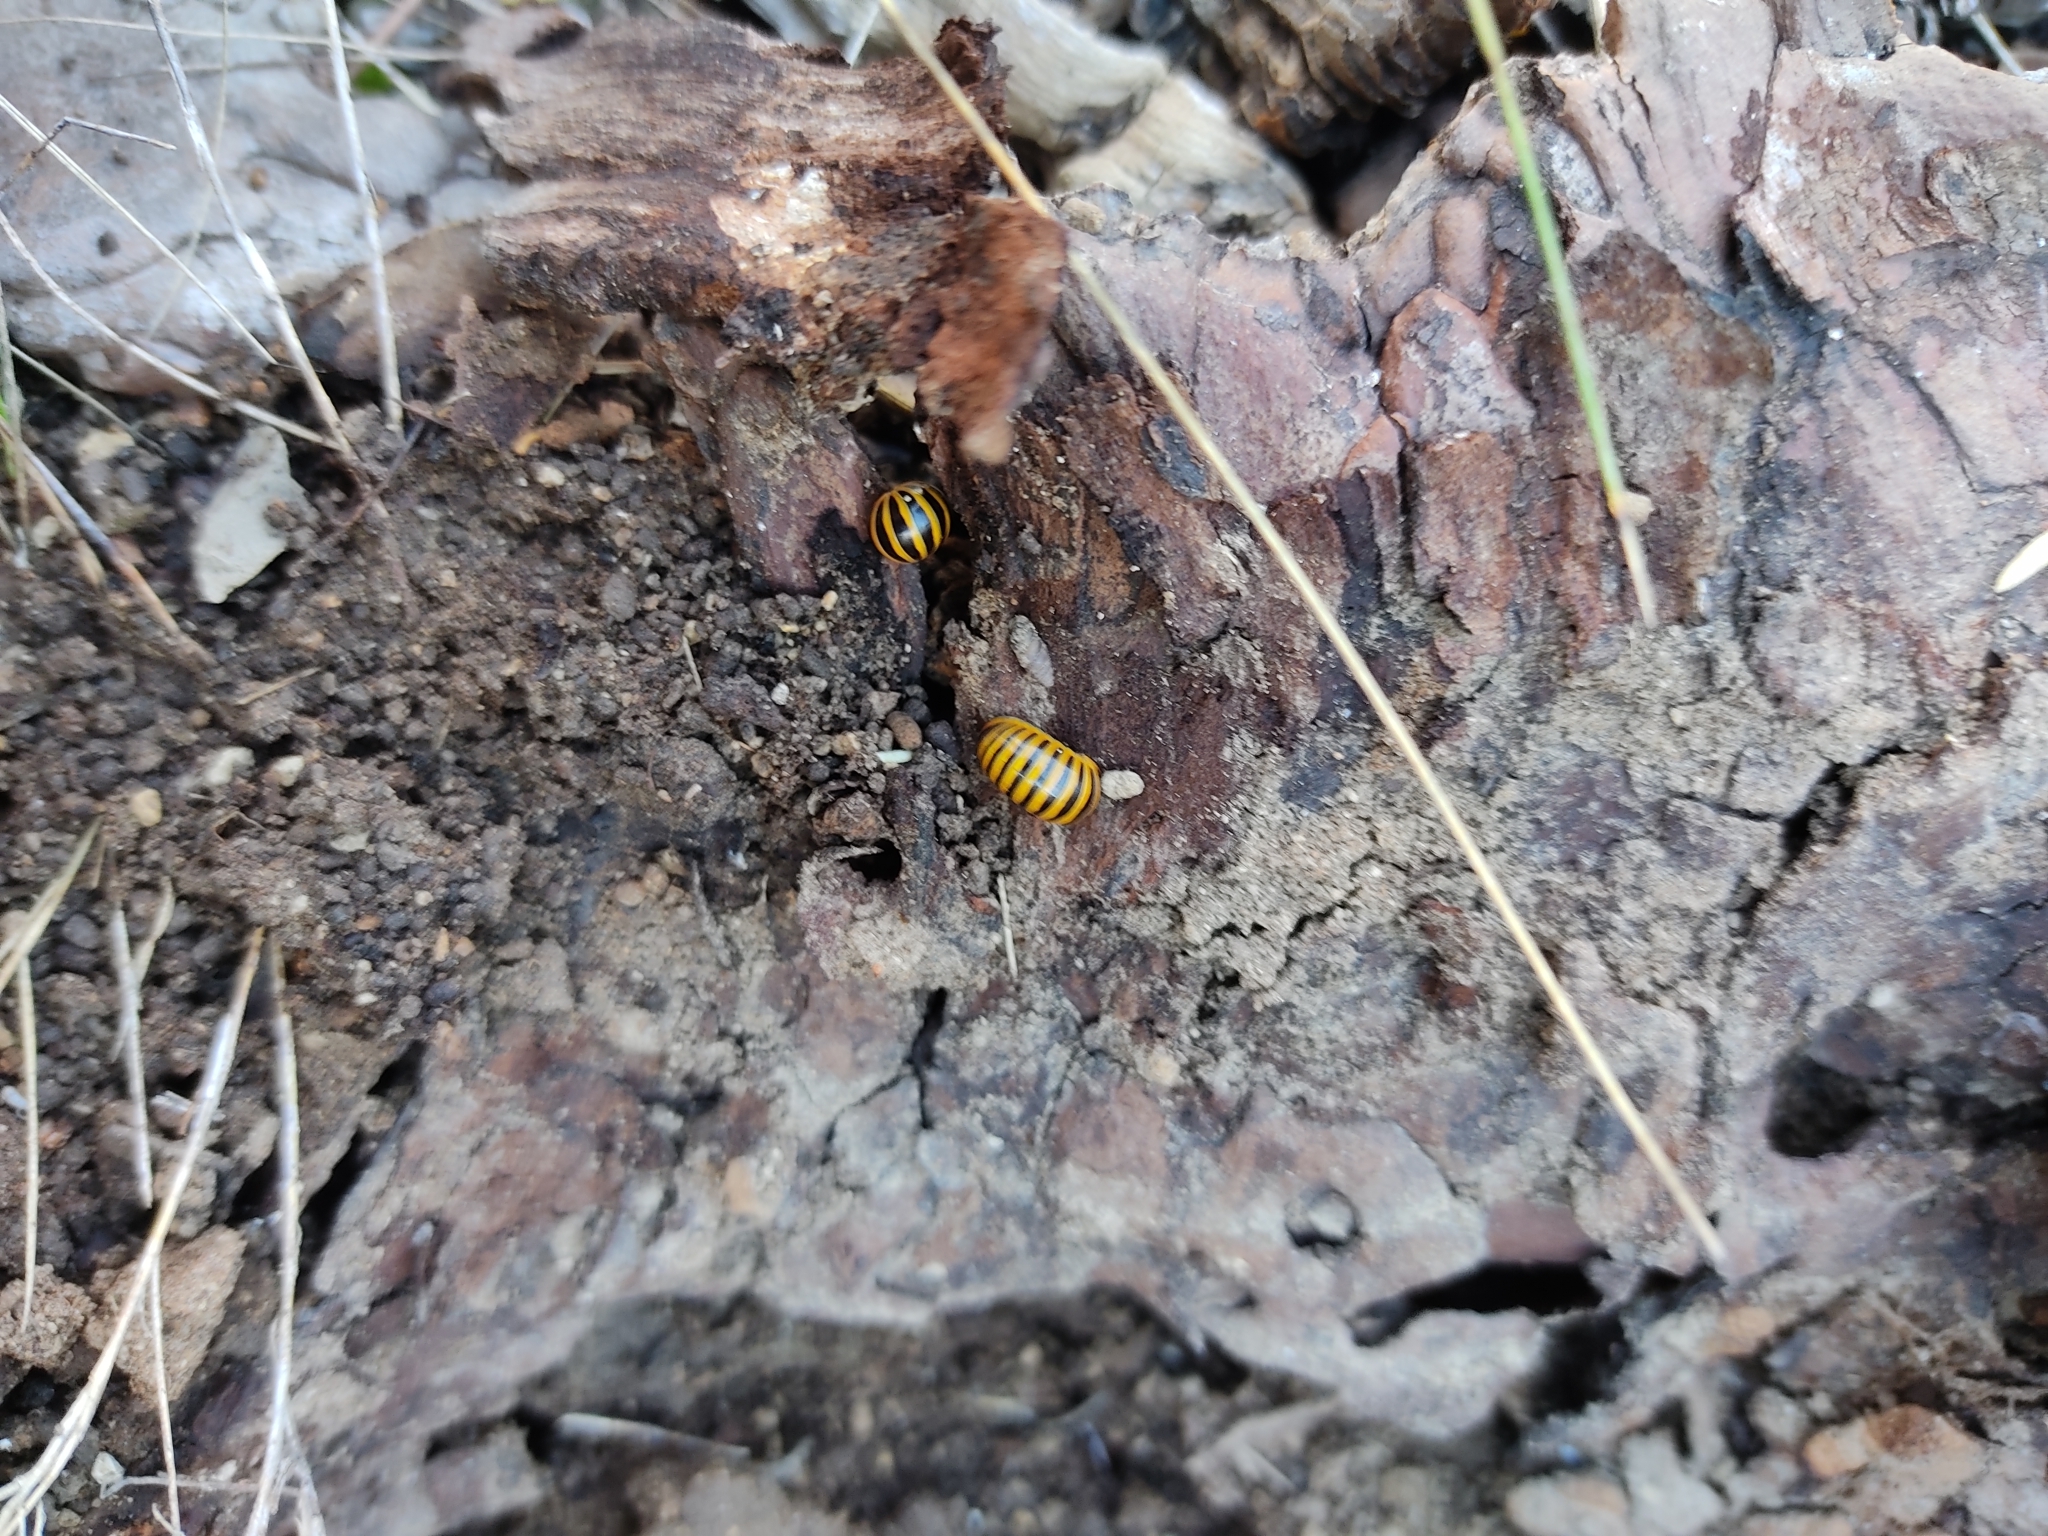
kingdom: Animalia
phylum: Arthropoda
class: Diplopoda
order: Glomerida
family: Glomeridae
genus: Glomeris
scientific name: Glomeris annulata
